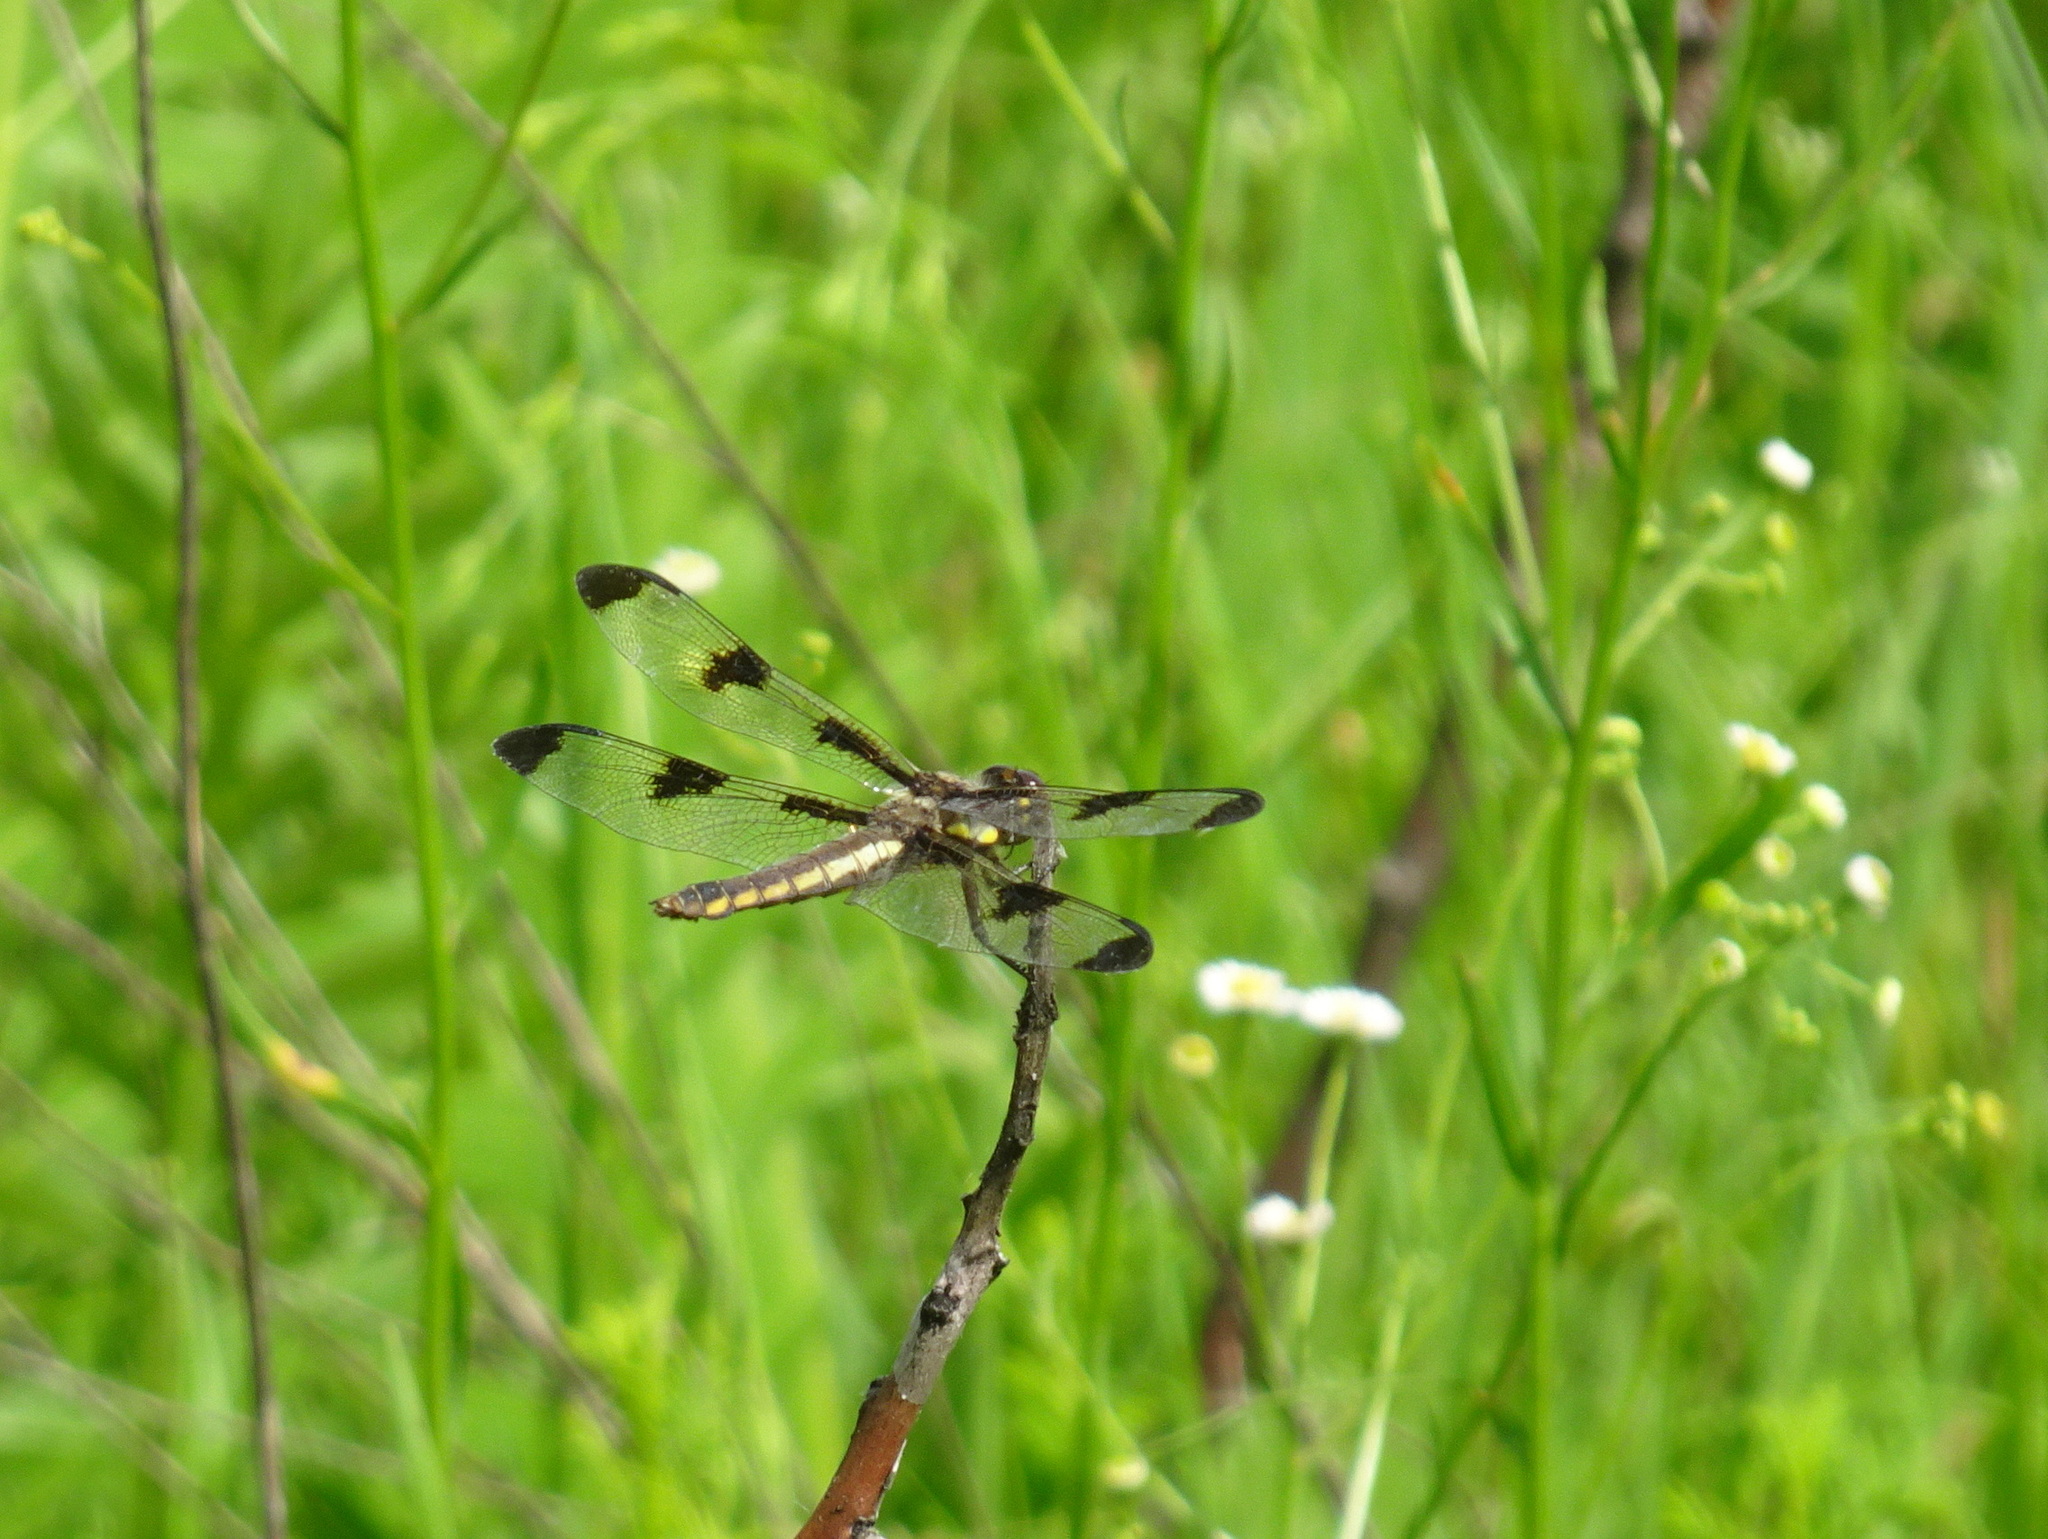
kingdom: Animalia
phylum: Arthropoda
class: Insecta
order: Odonata
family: Libellulidae
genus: Libellula
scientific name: Libellula pulchella
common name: Twelve-spotted skimmer
